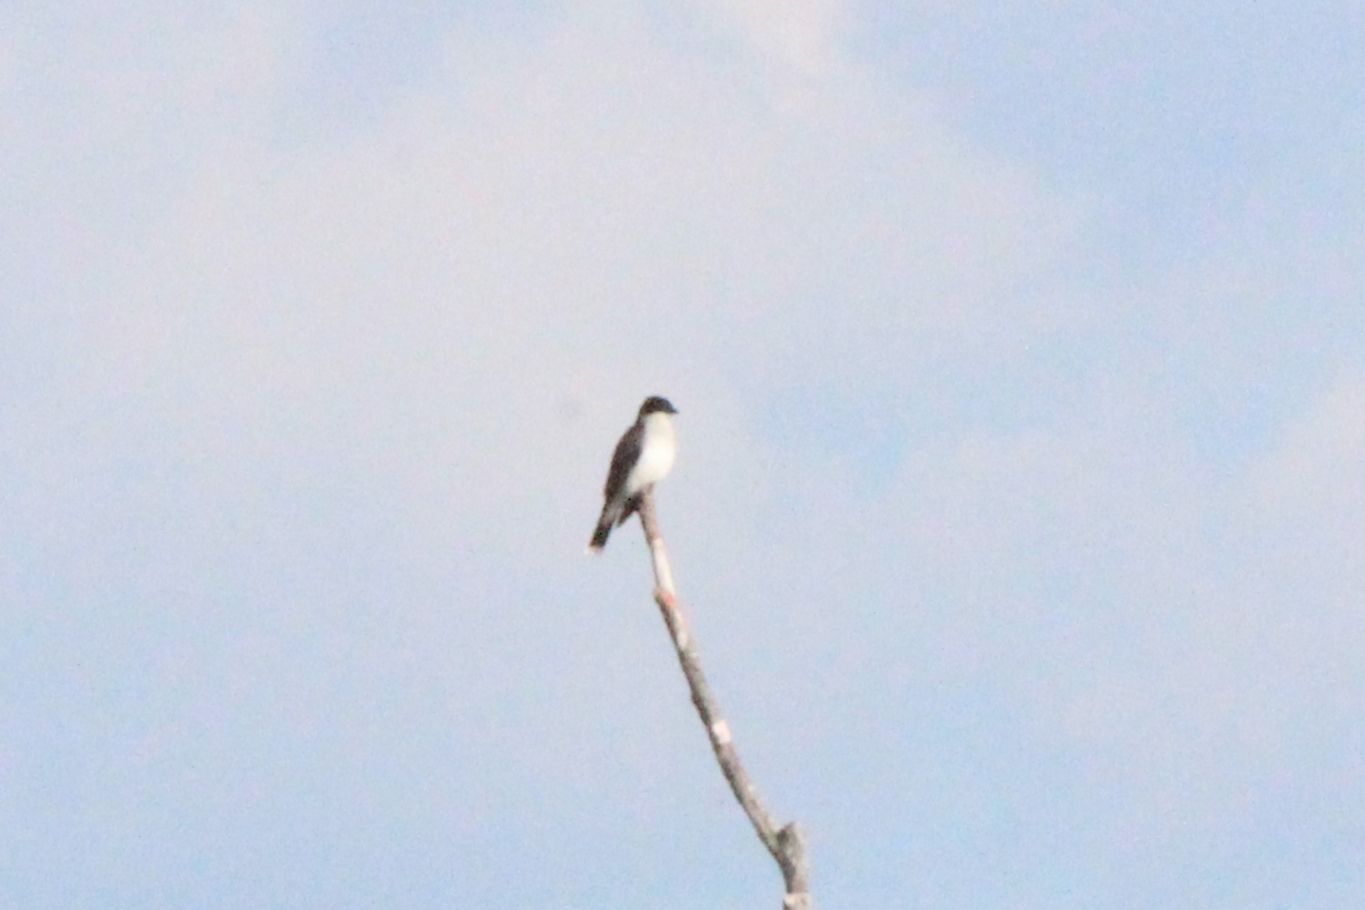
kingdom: Animalia
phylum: Chordata
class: Aves
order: Passeriformes
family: Tyrannidae
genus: Tyrannus
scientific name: Tyrannus tyrannus
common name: Eastern kingbird
